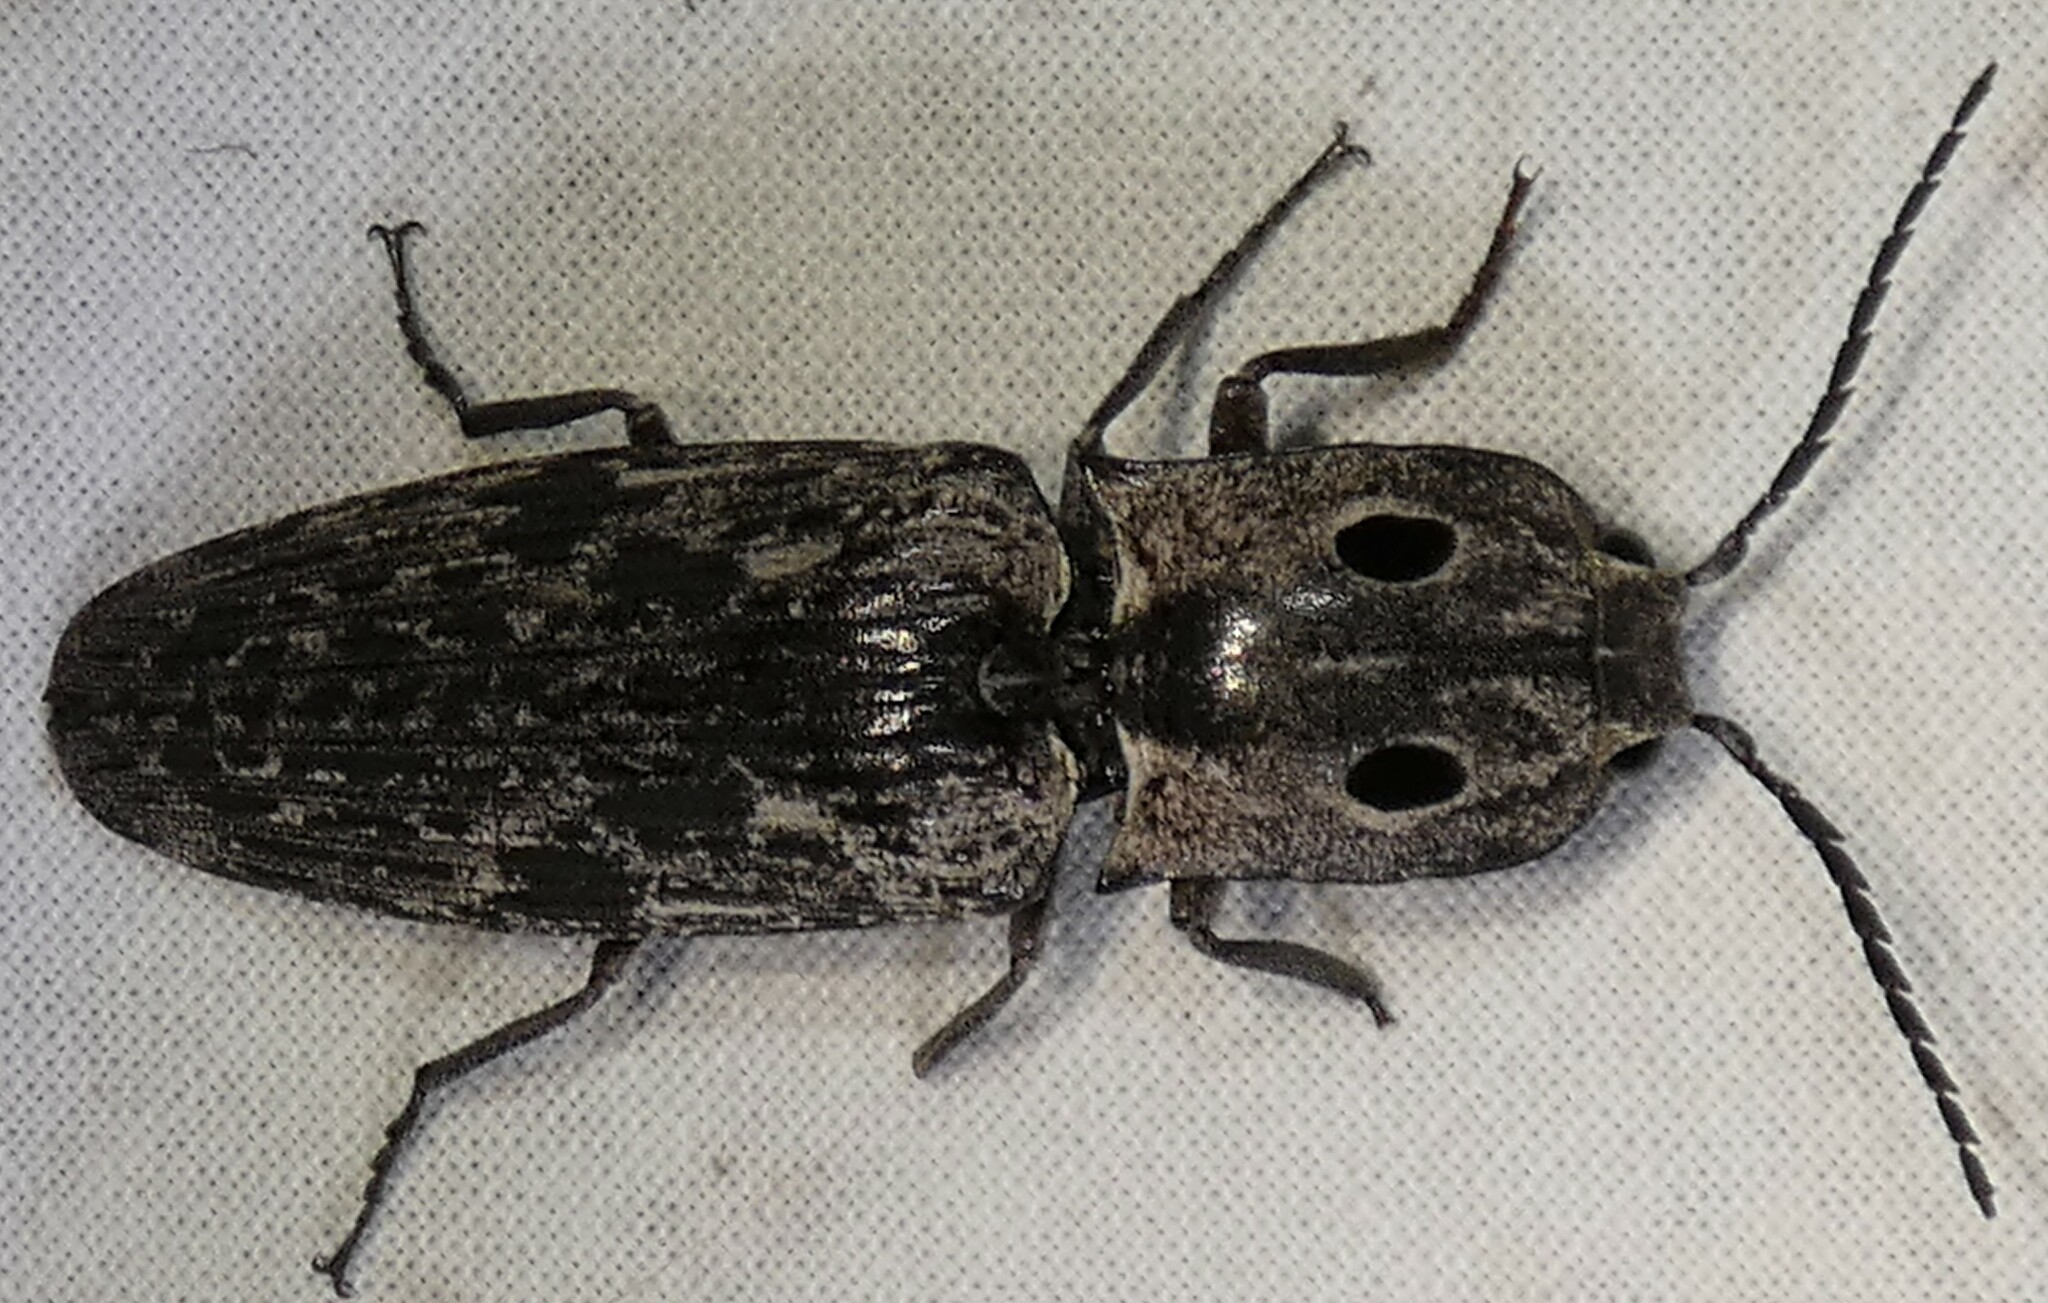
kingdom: Animalia
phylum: Arthropoda
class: Insecta
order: Coleoptera
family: Elateridae
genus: Alaus
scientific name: Alaus myops
